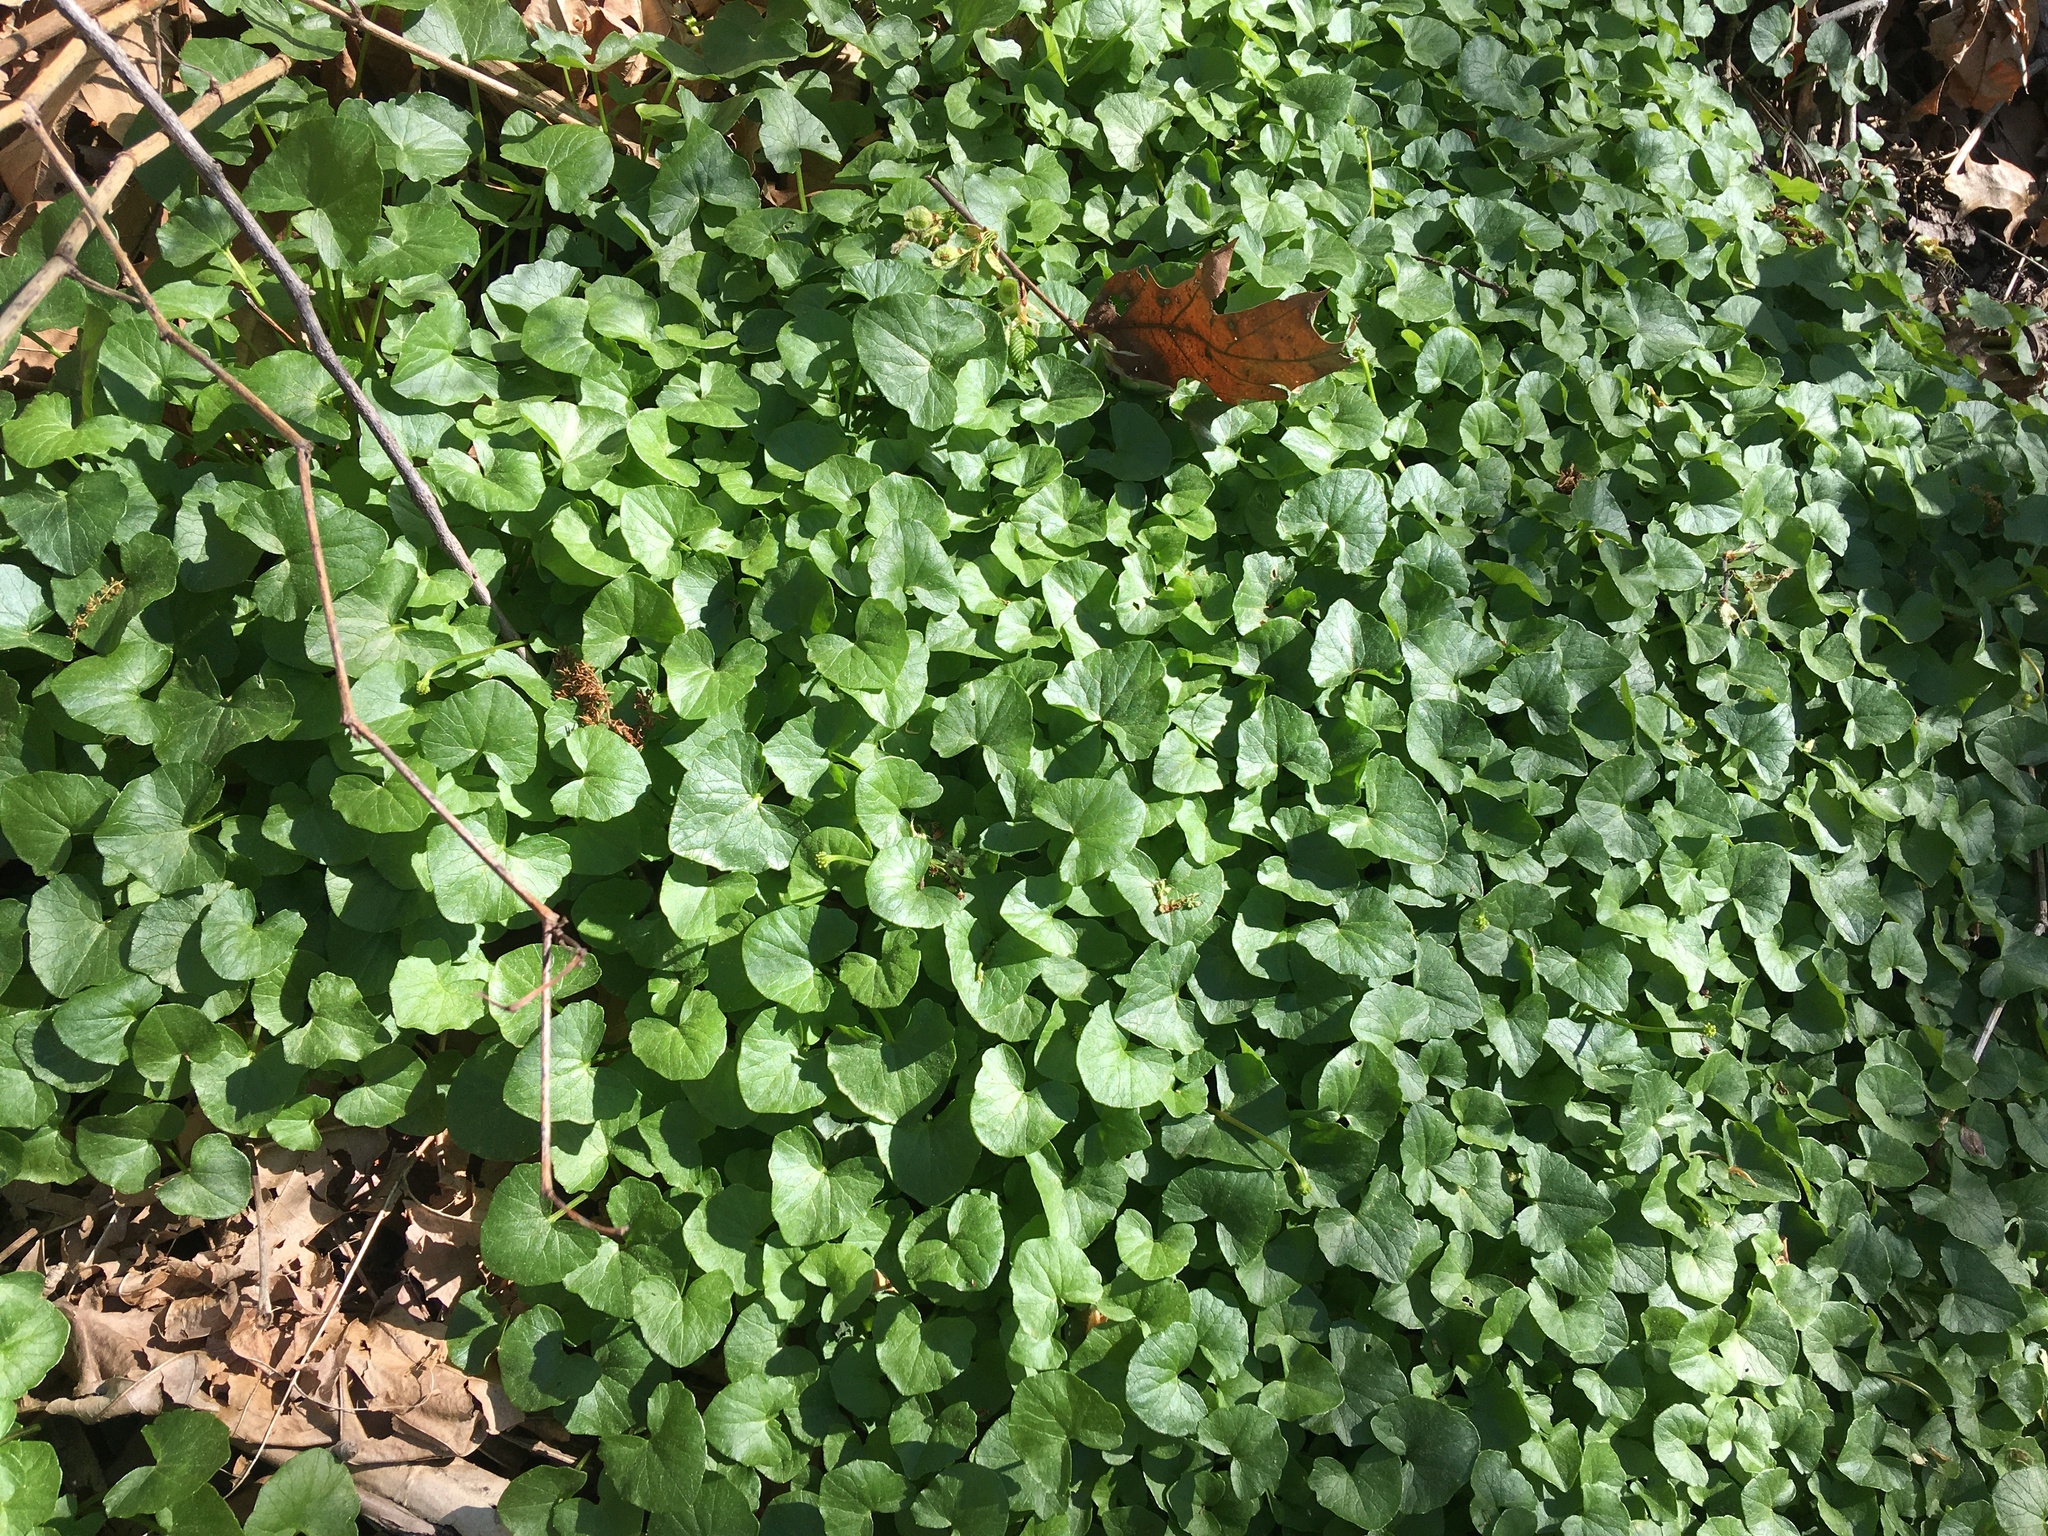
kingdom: Plantae
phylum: Tracheophyta
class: Magnoliopsida
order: Ranunculales
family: Ranunculaceae
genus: Ficaria
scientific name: Ficaria verna
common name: Lesser celandine
